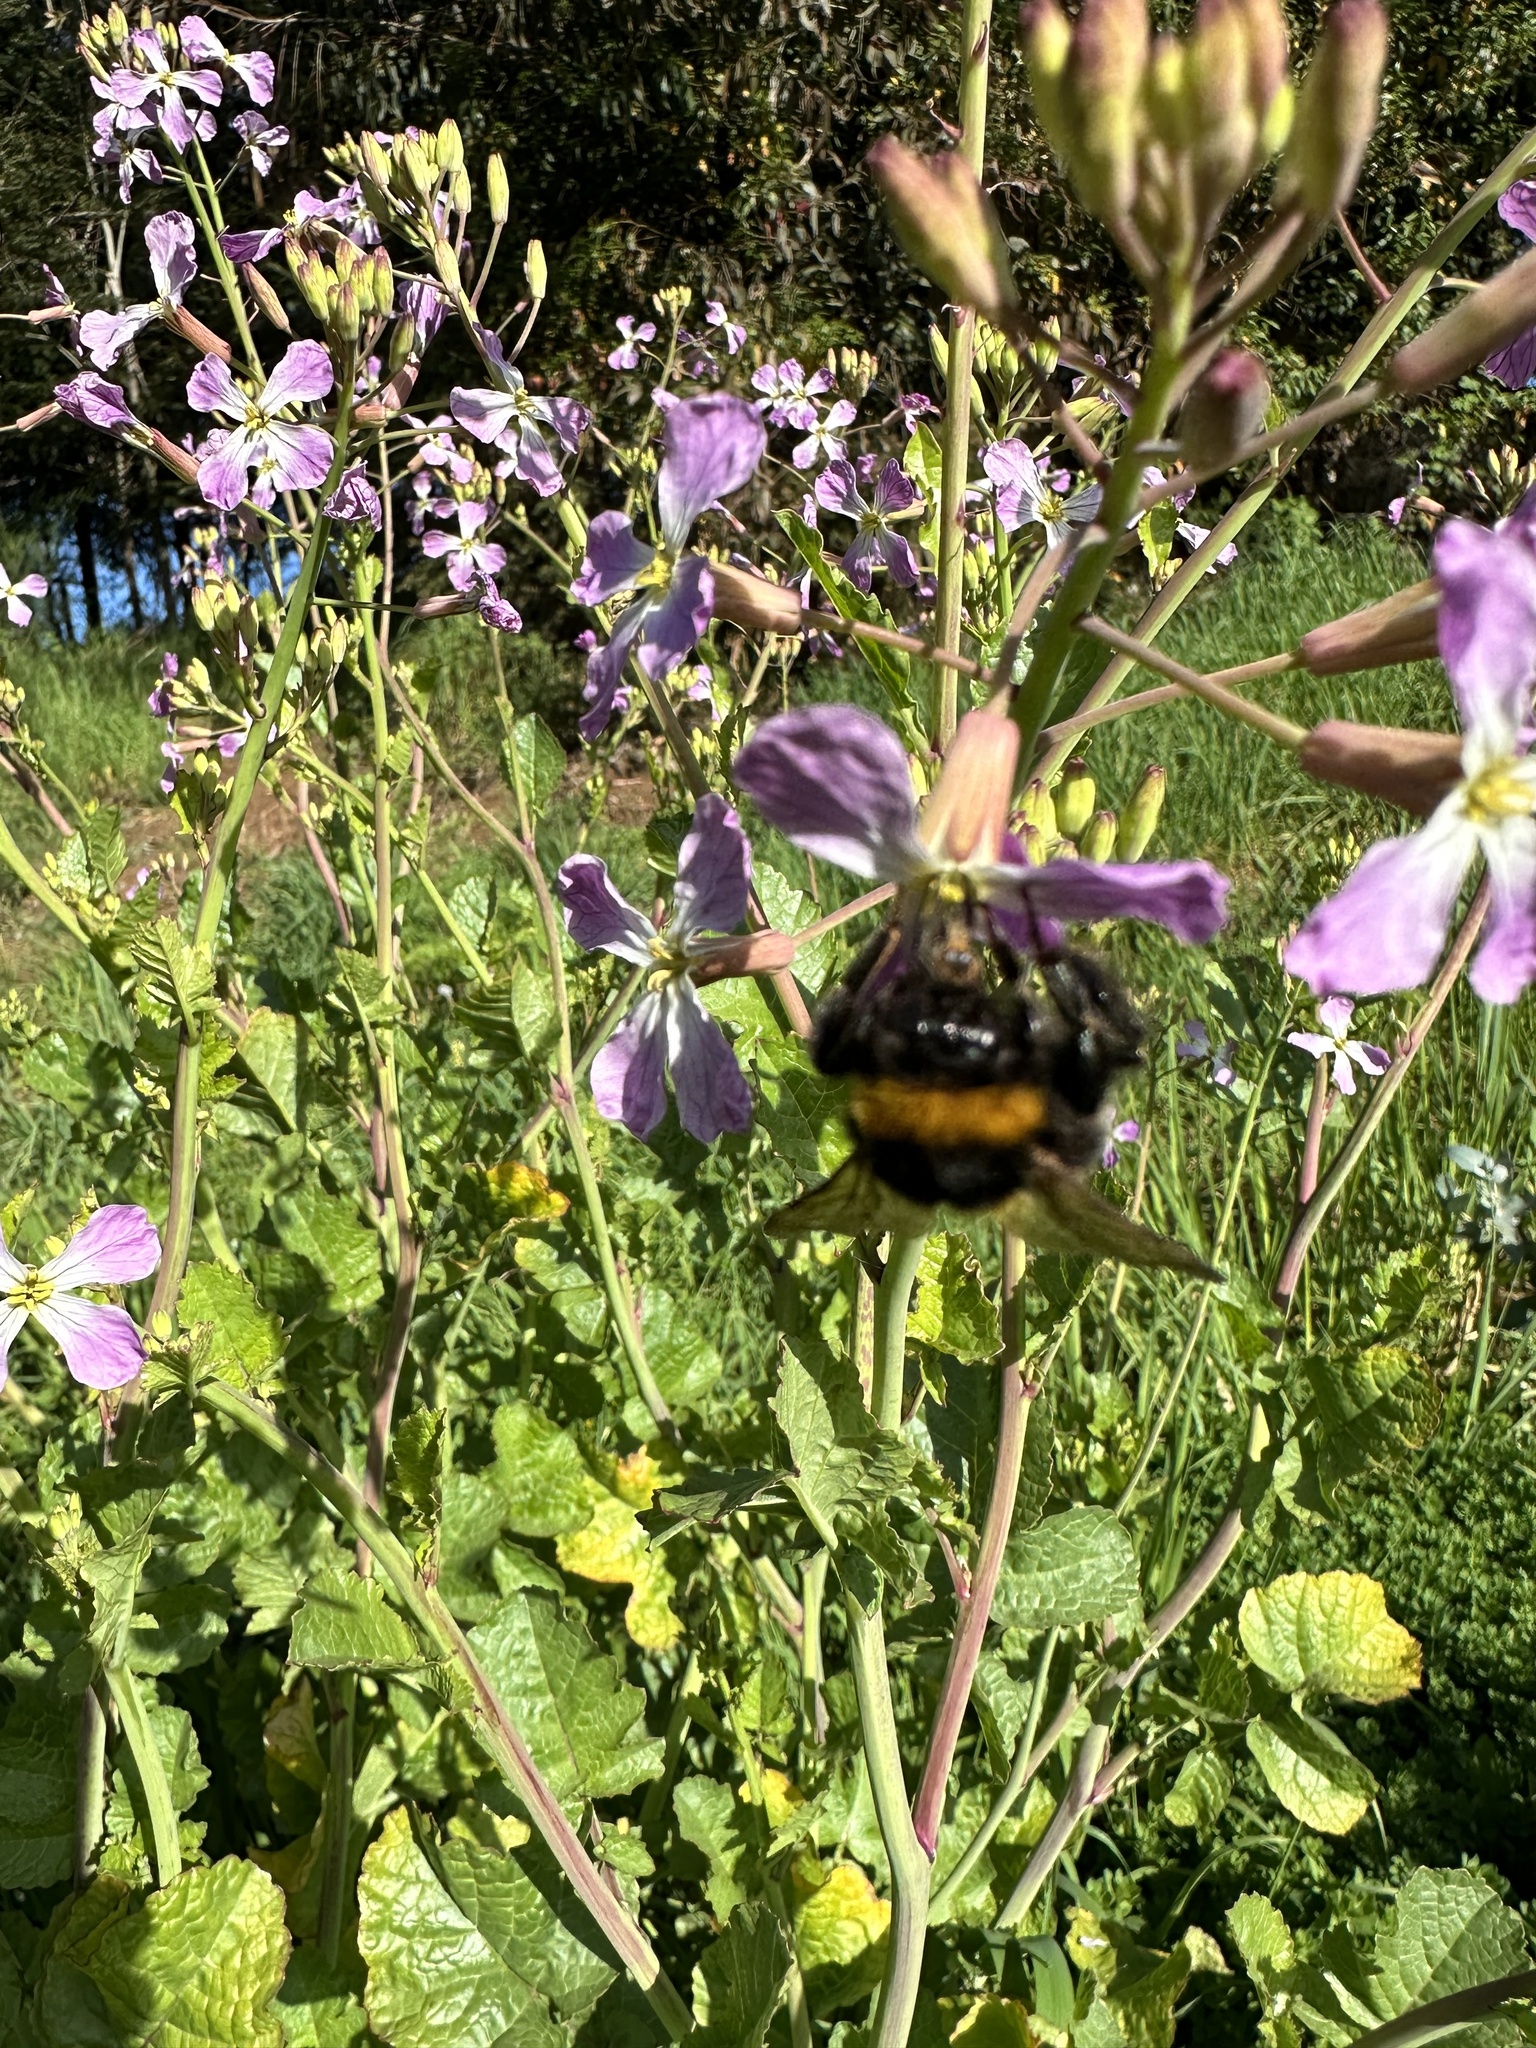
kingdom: Animalia
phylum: Arthropoda
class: Insecta
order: Hymenoptera
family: Apidae
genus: Bombus
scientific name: Bombus terrestris
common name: Buff-tailed bumblebee
